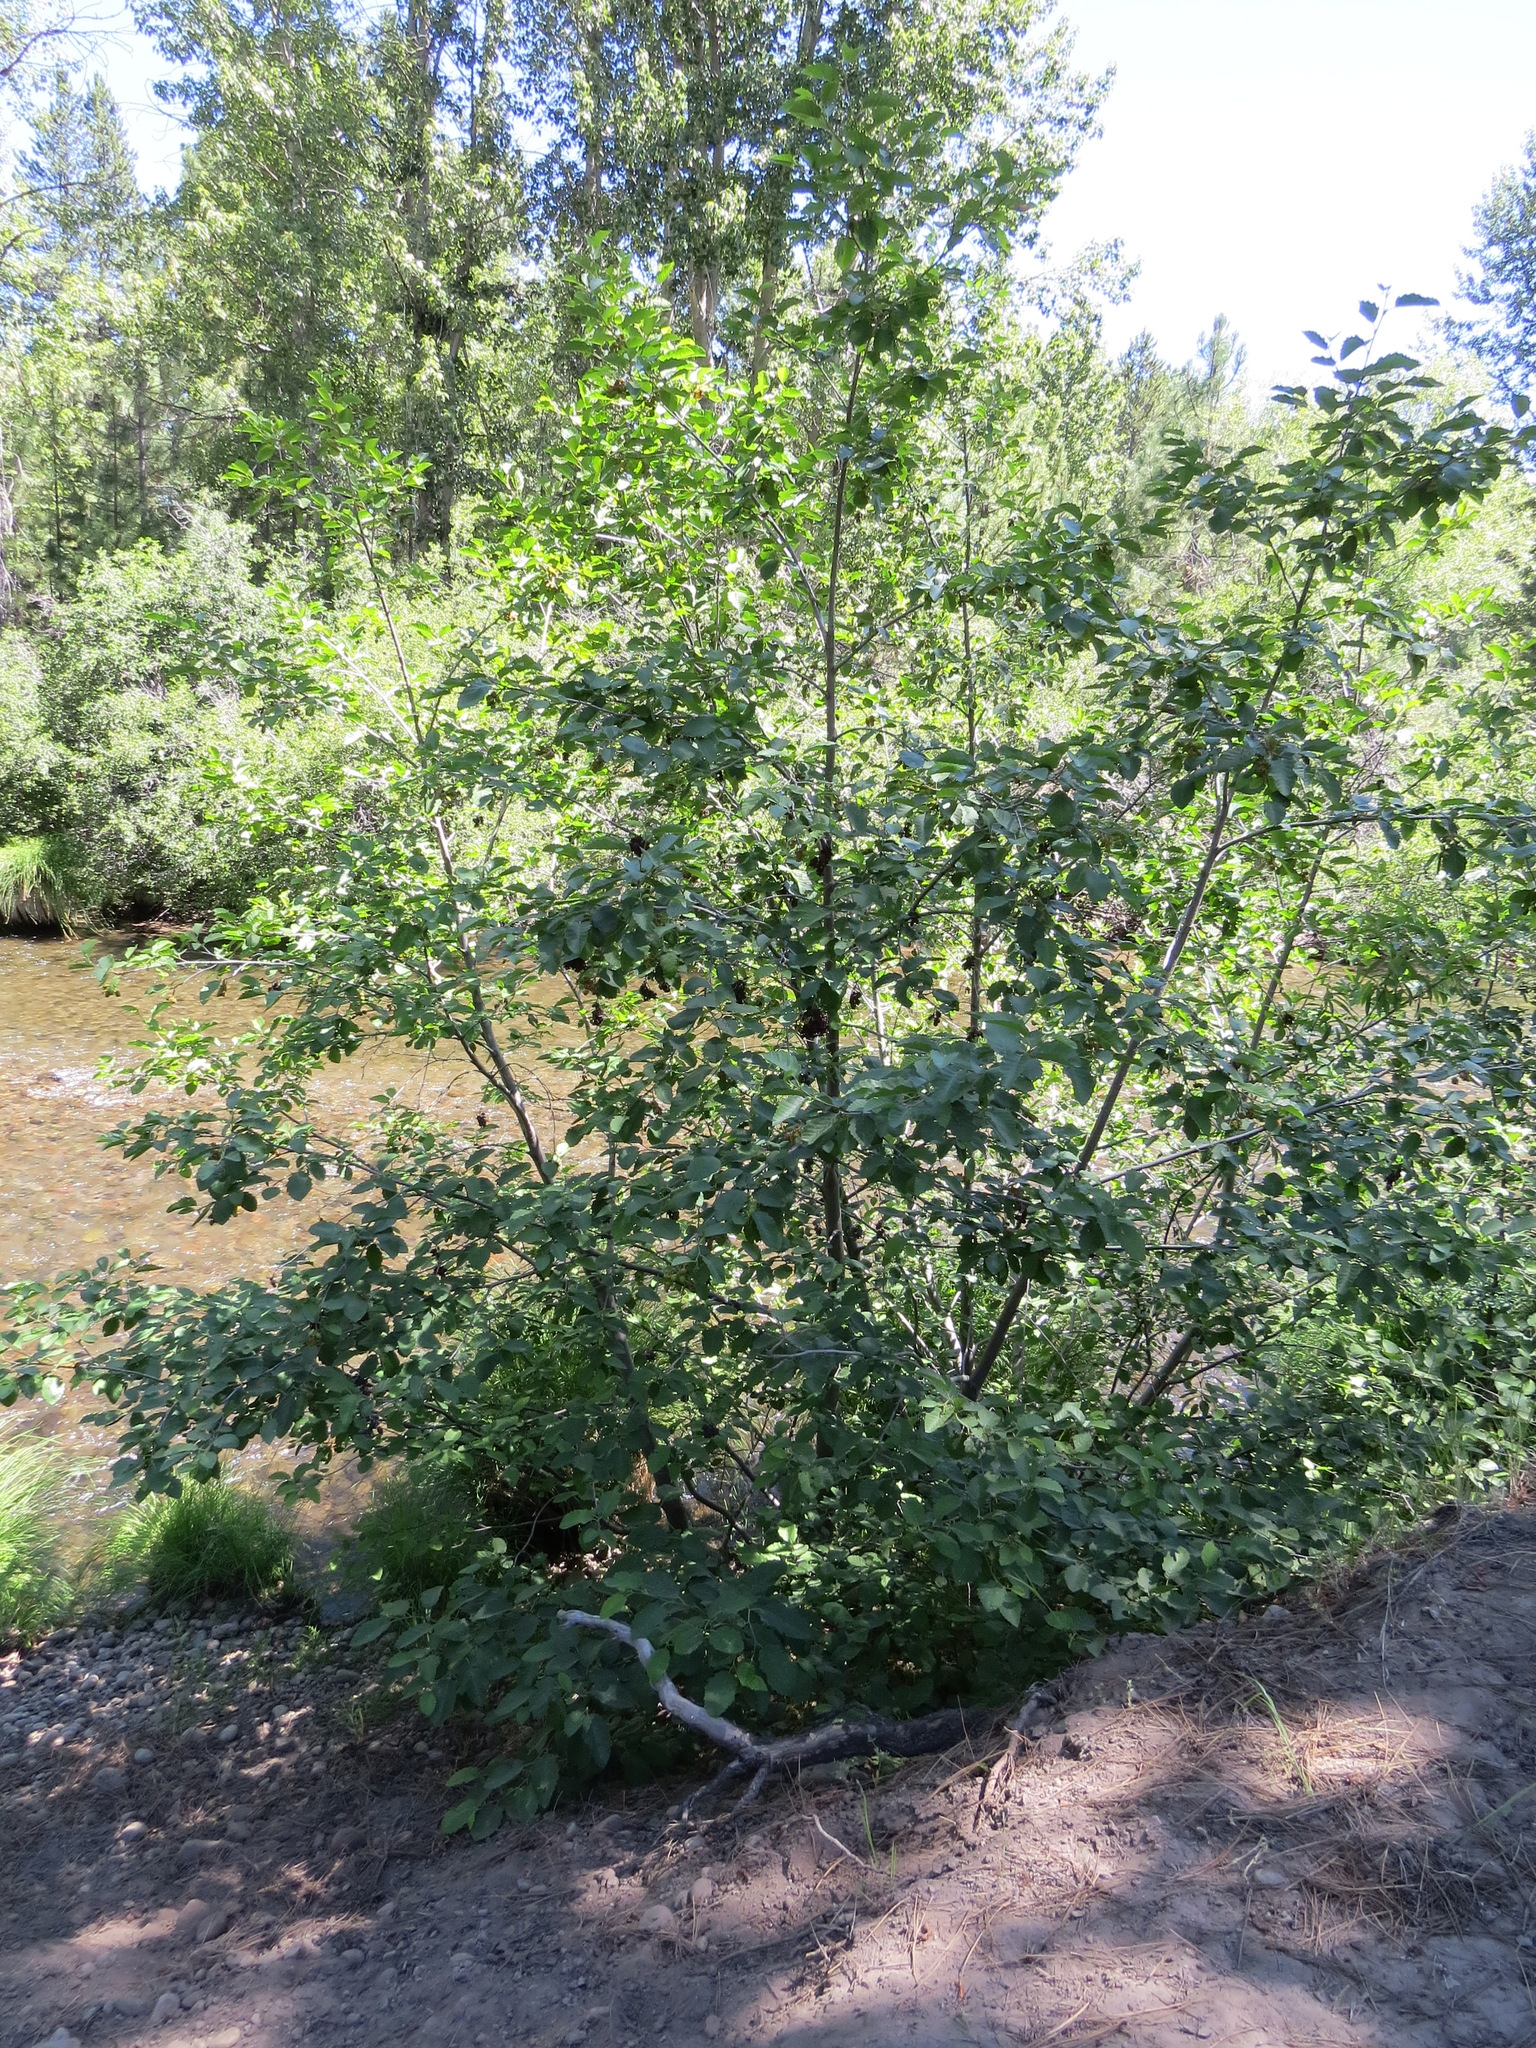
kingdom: Fungi
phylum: Ascomycota
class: Taphrinomycetes
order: Taphrinales
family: Taphrinaceae
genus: Taphrina
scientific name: Taphrina occidentalis
